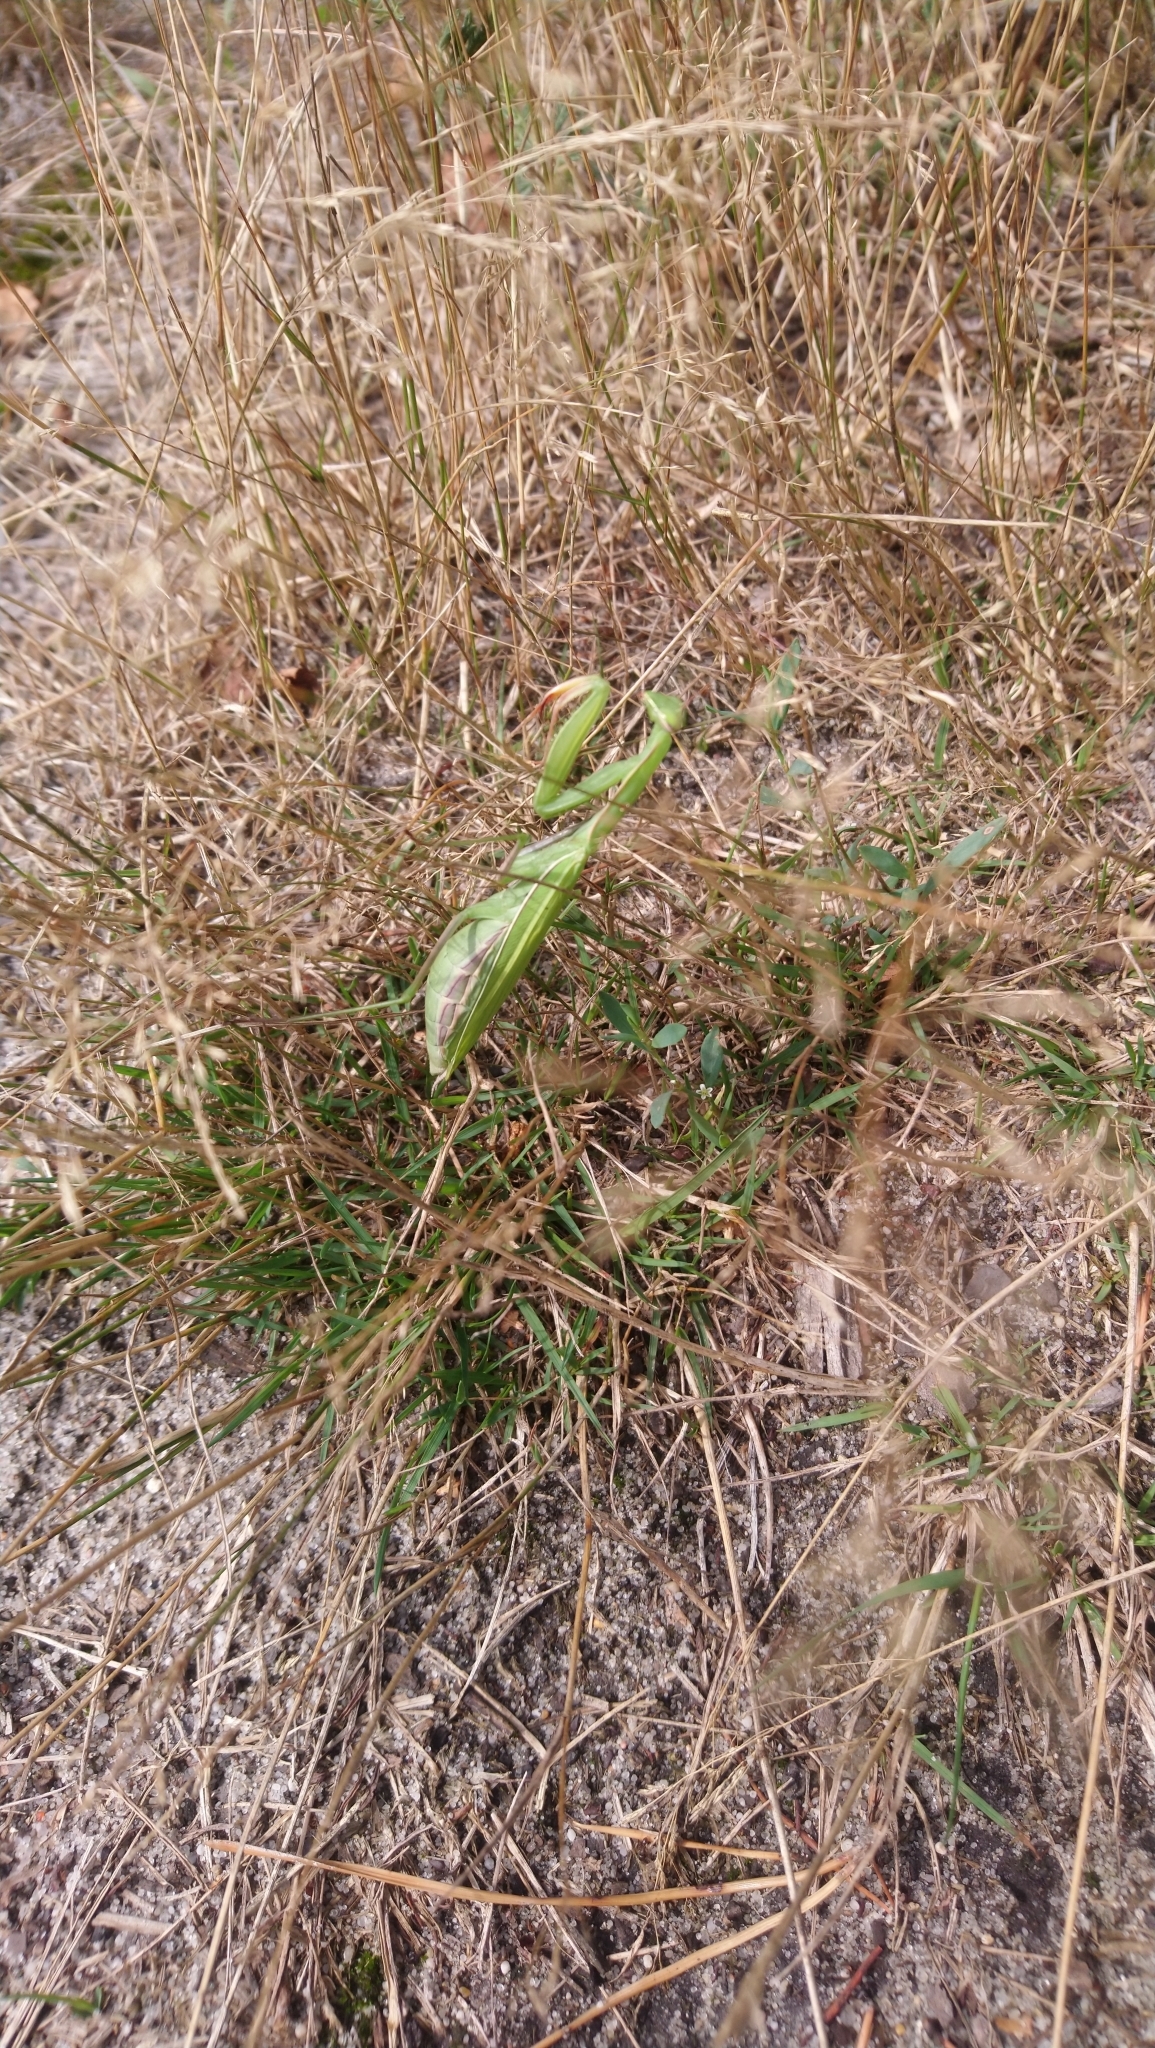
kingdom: Animalia
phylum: Arthropoda
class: Insecta
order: Mantodea
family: Mantidae
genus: Mantis
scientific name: Mantis religiosa
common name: Praying mantis
